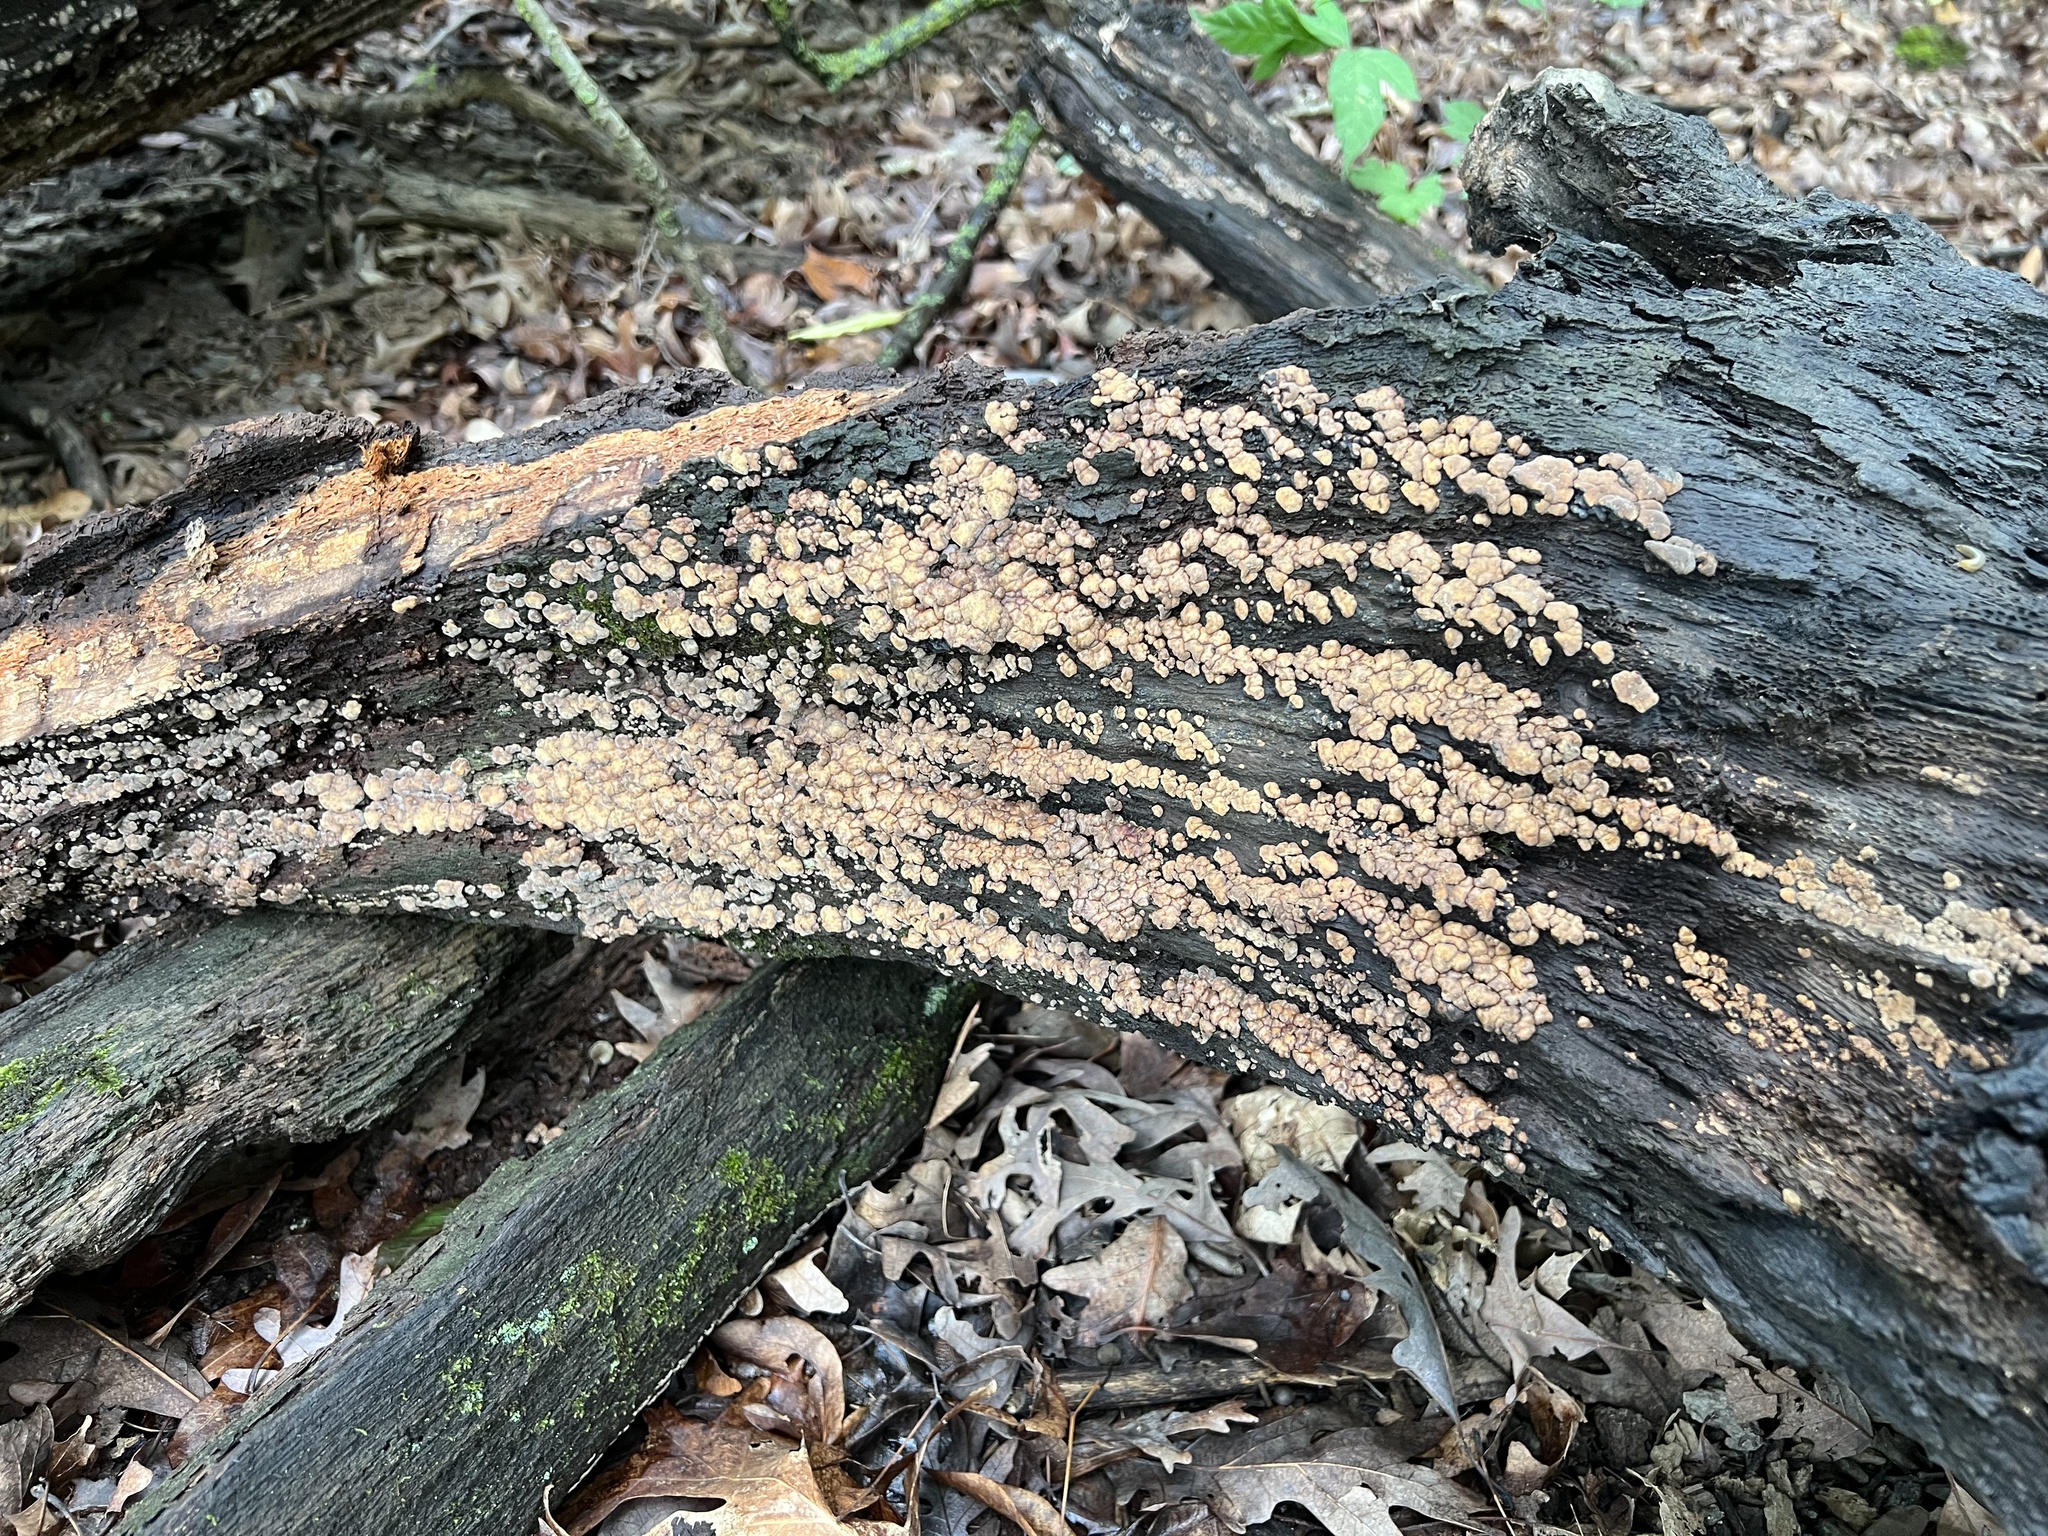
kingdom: Fungi
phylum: Basidiomycota
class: Agaricomycetes
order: Russulales
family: Stereaceae
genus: Xylobolus
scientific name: Xylobolus frustulatus
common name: Ceramic parchment
